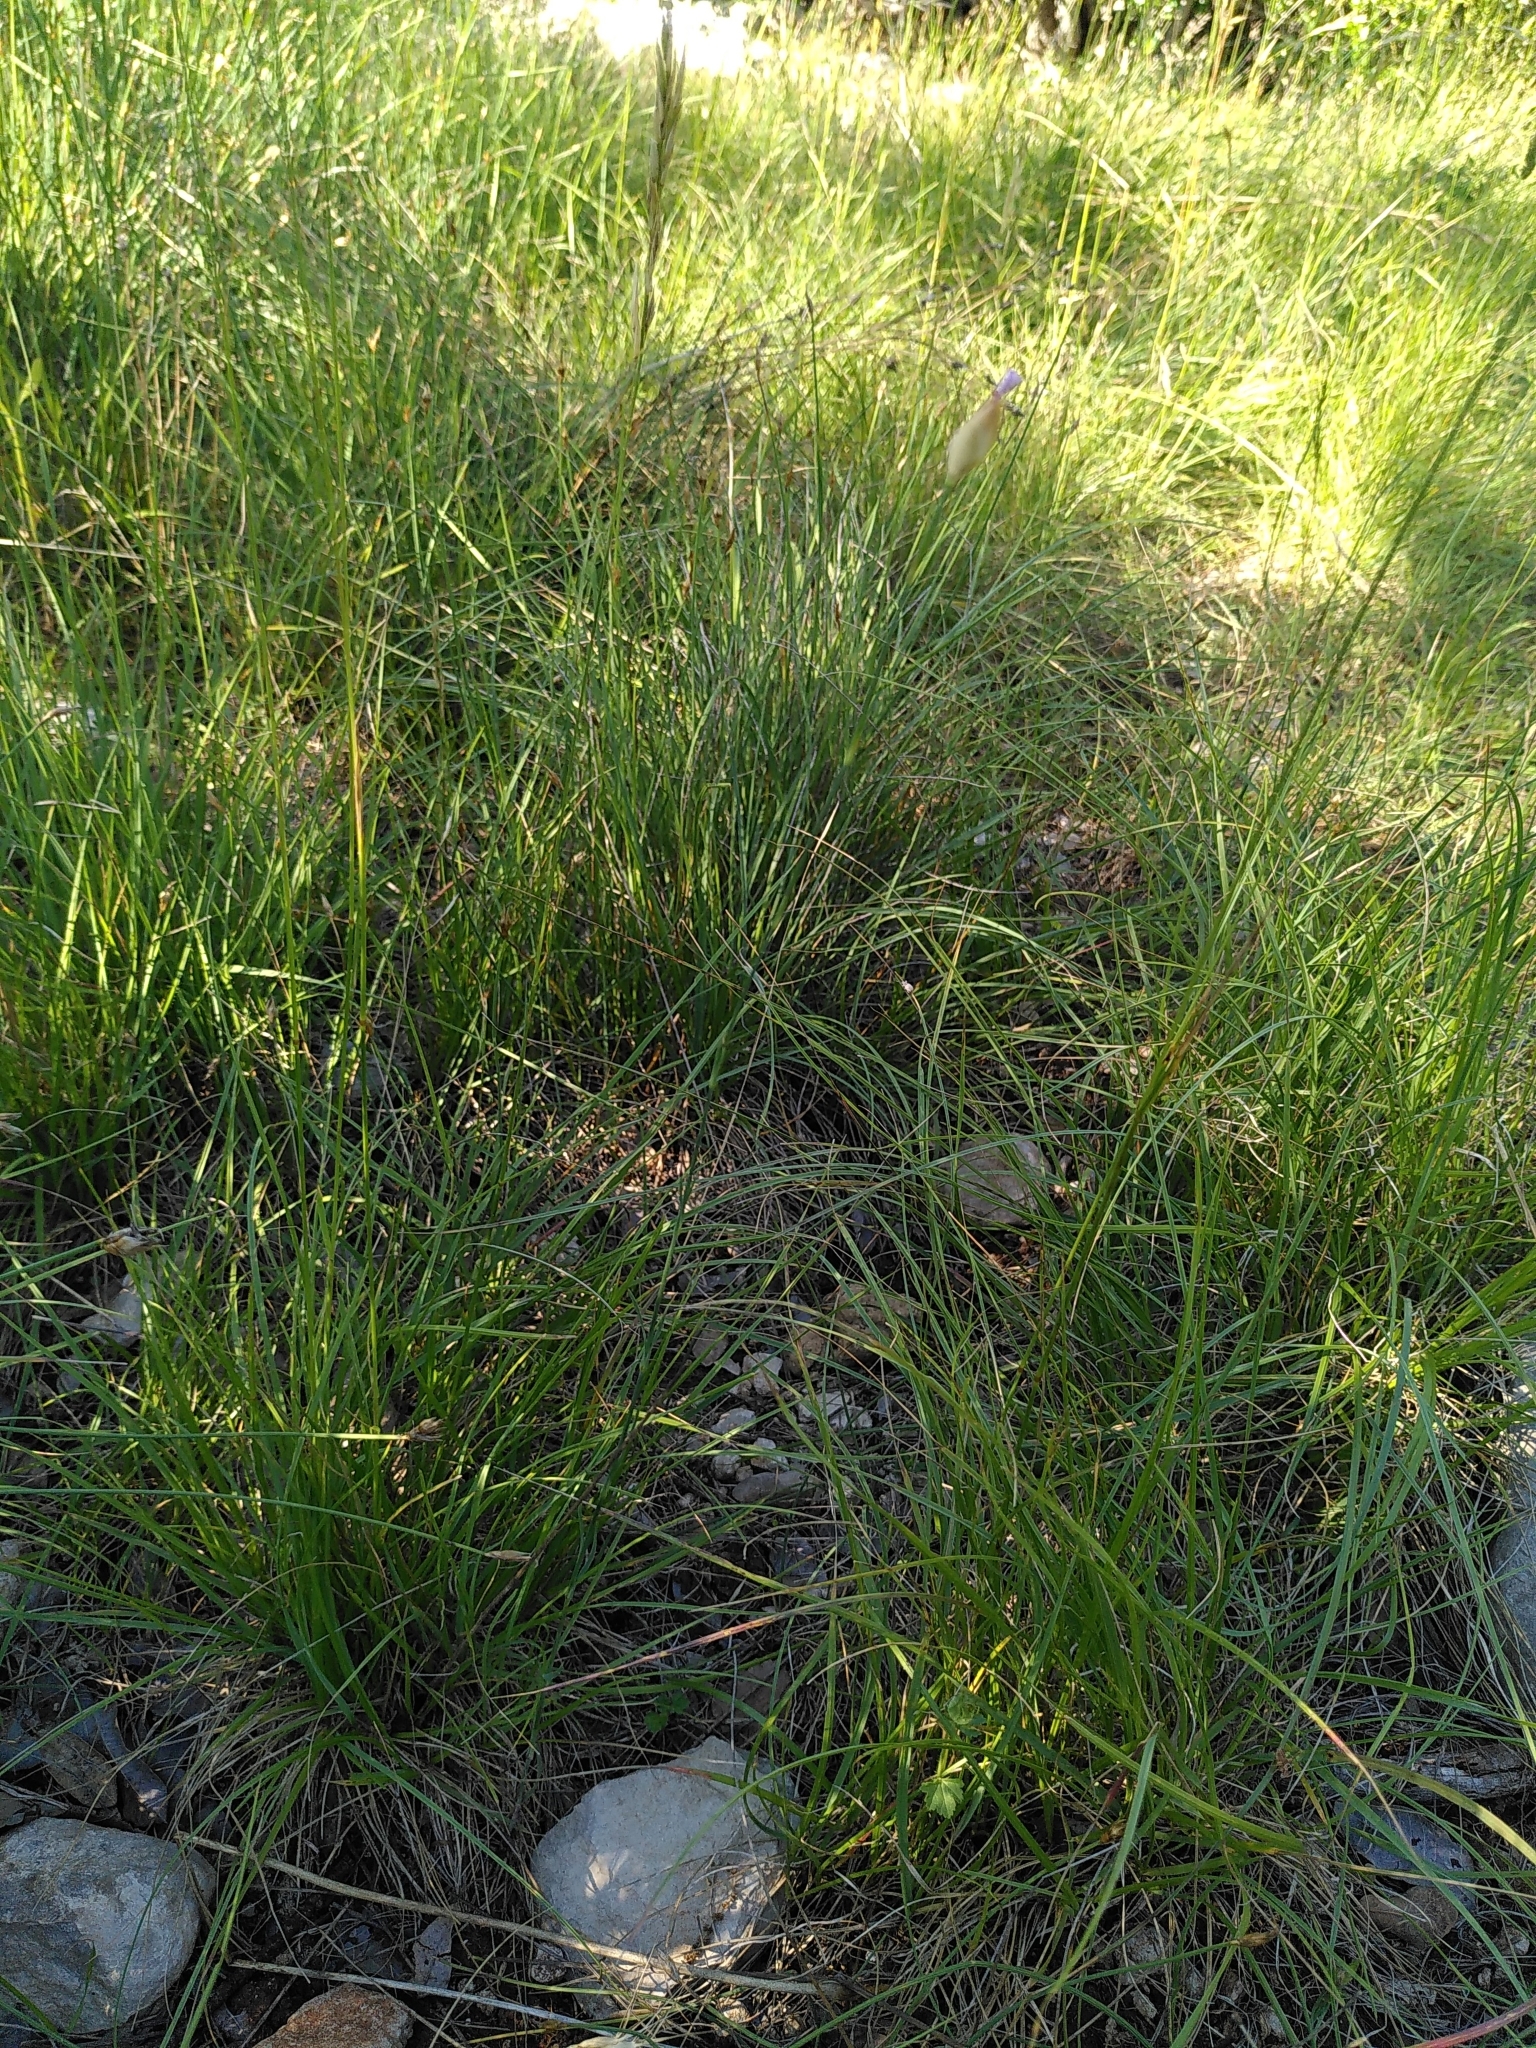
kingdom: Plantae
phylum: Tracheophyta
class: Magnoliopsida
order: Caryophyllales
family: Caryophyllaceae
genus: Petrorhagia
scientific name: Petrorhagia prolifera
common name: Proliferous pink
